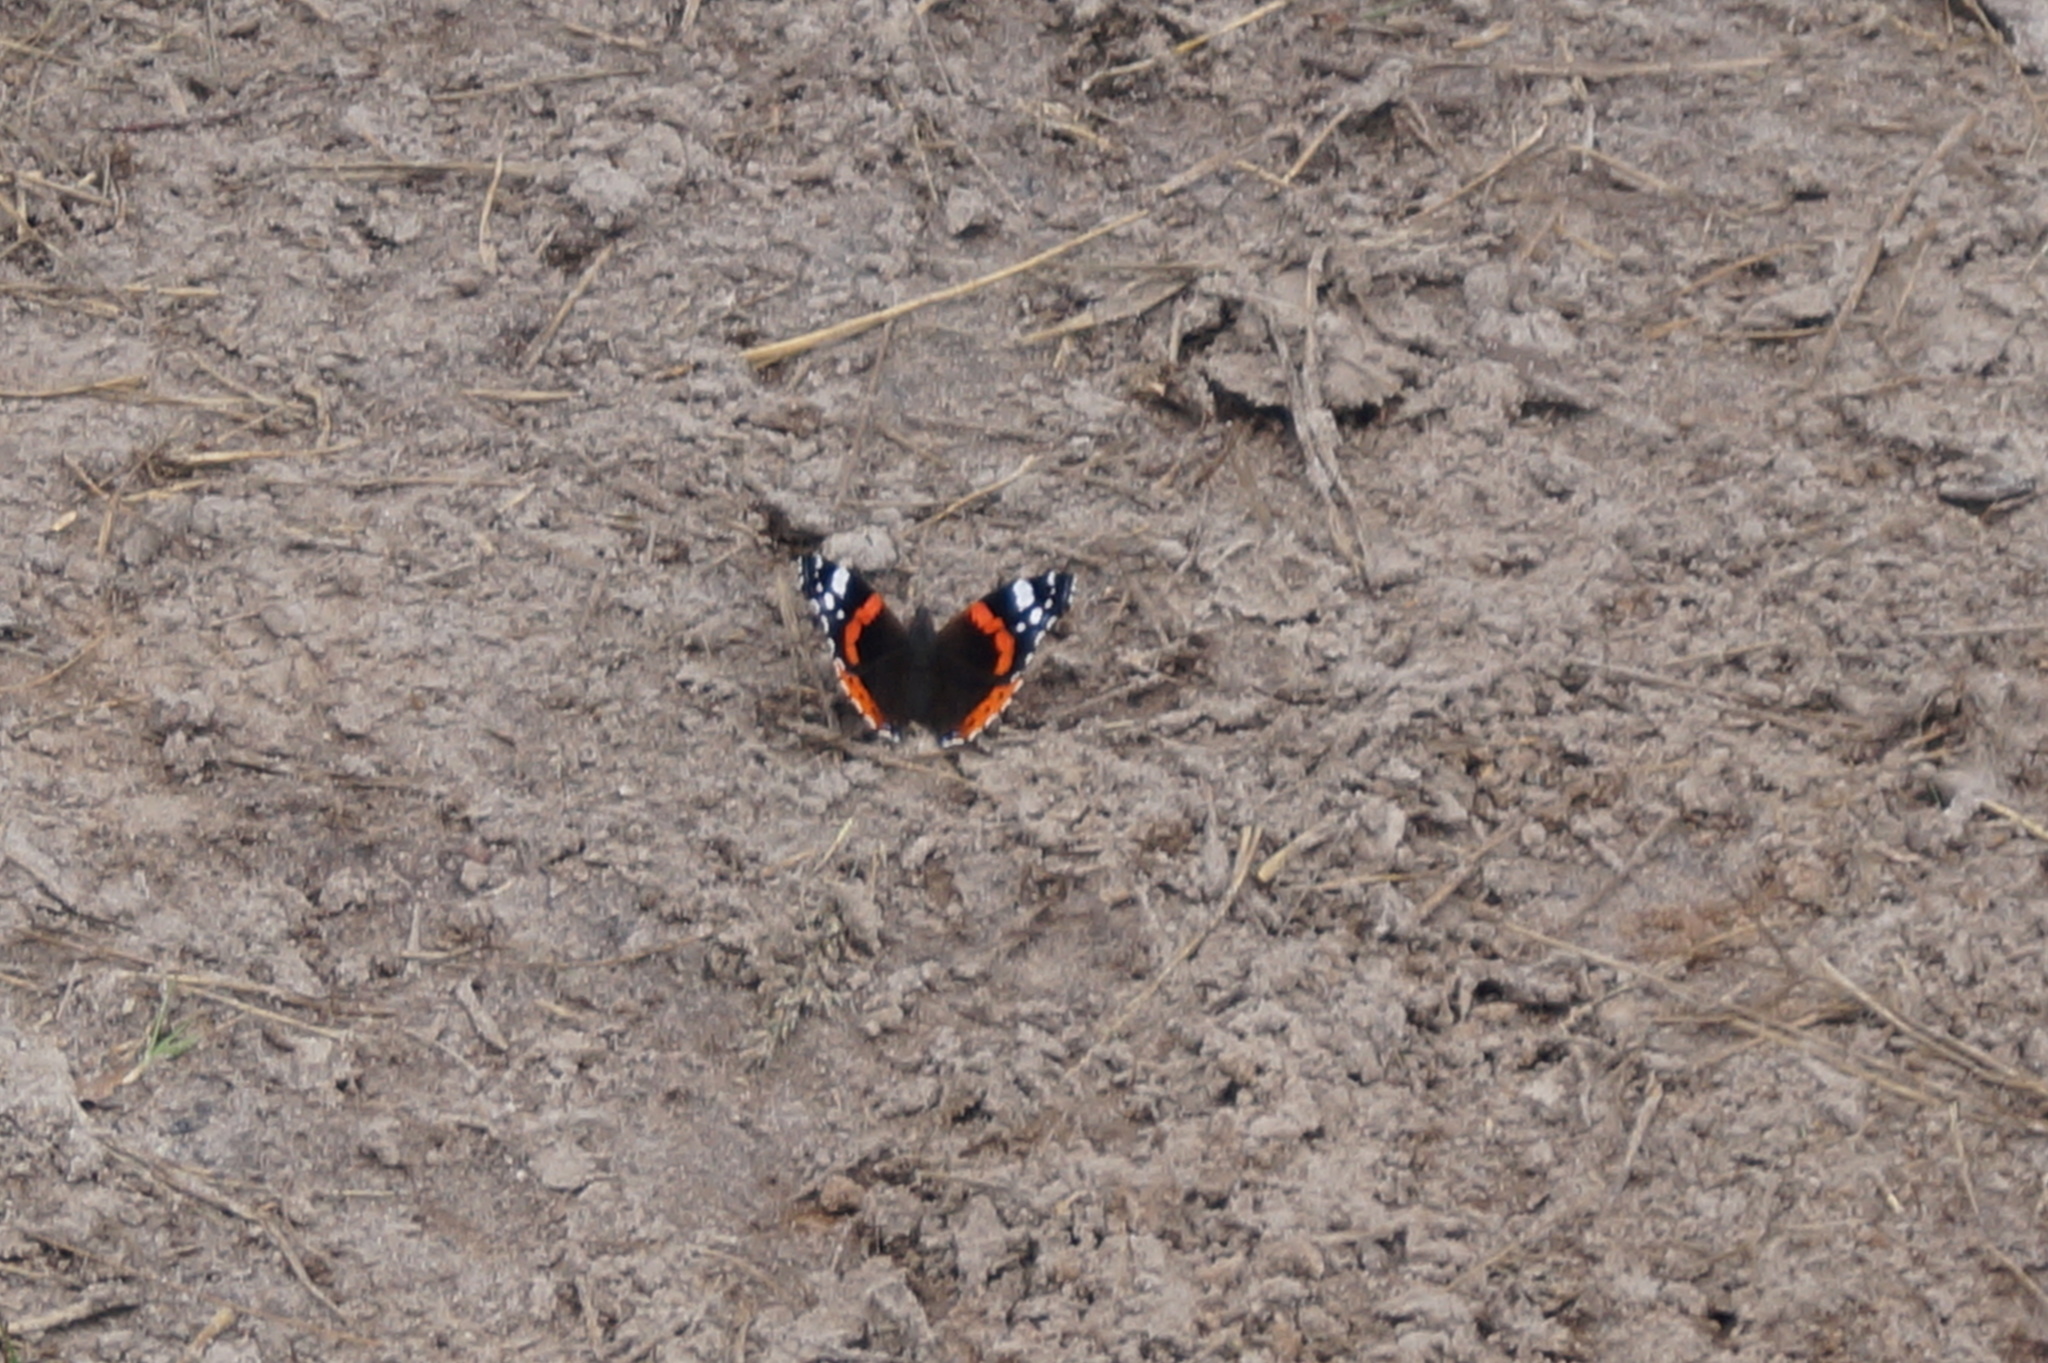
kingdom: Animalia
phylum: Arthropoda
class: Insecta
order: Lepidoptera
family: Nymphalidae
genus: Vanessa
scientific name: Vanessa atalanta
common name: Red admiral
